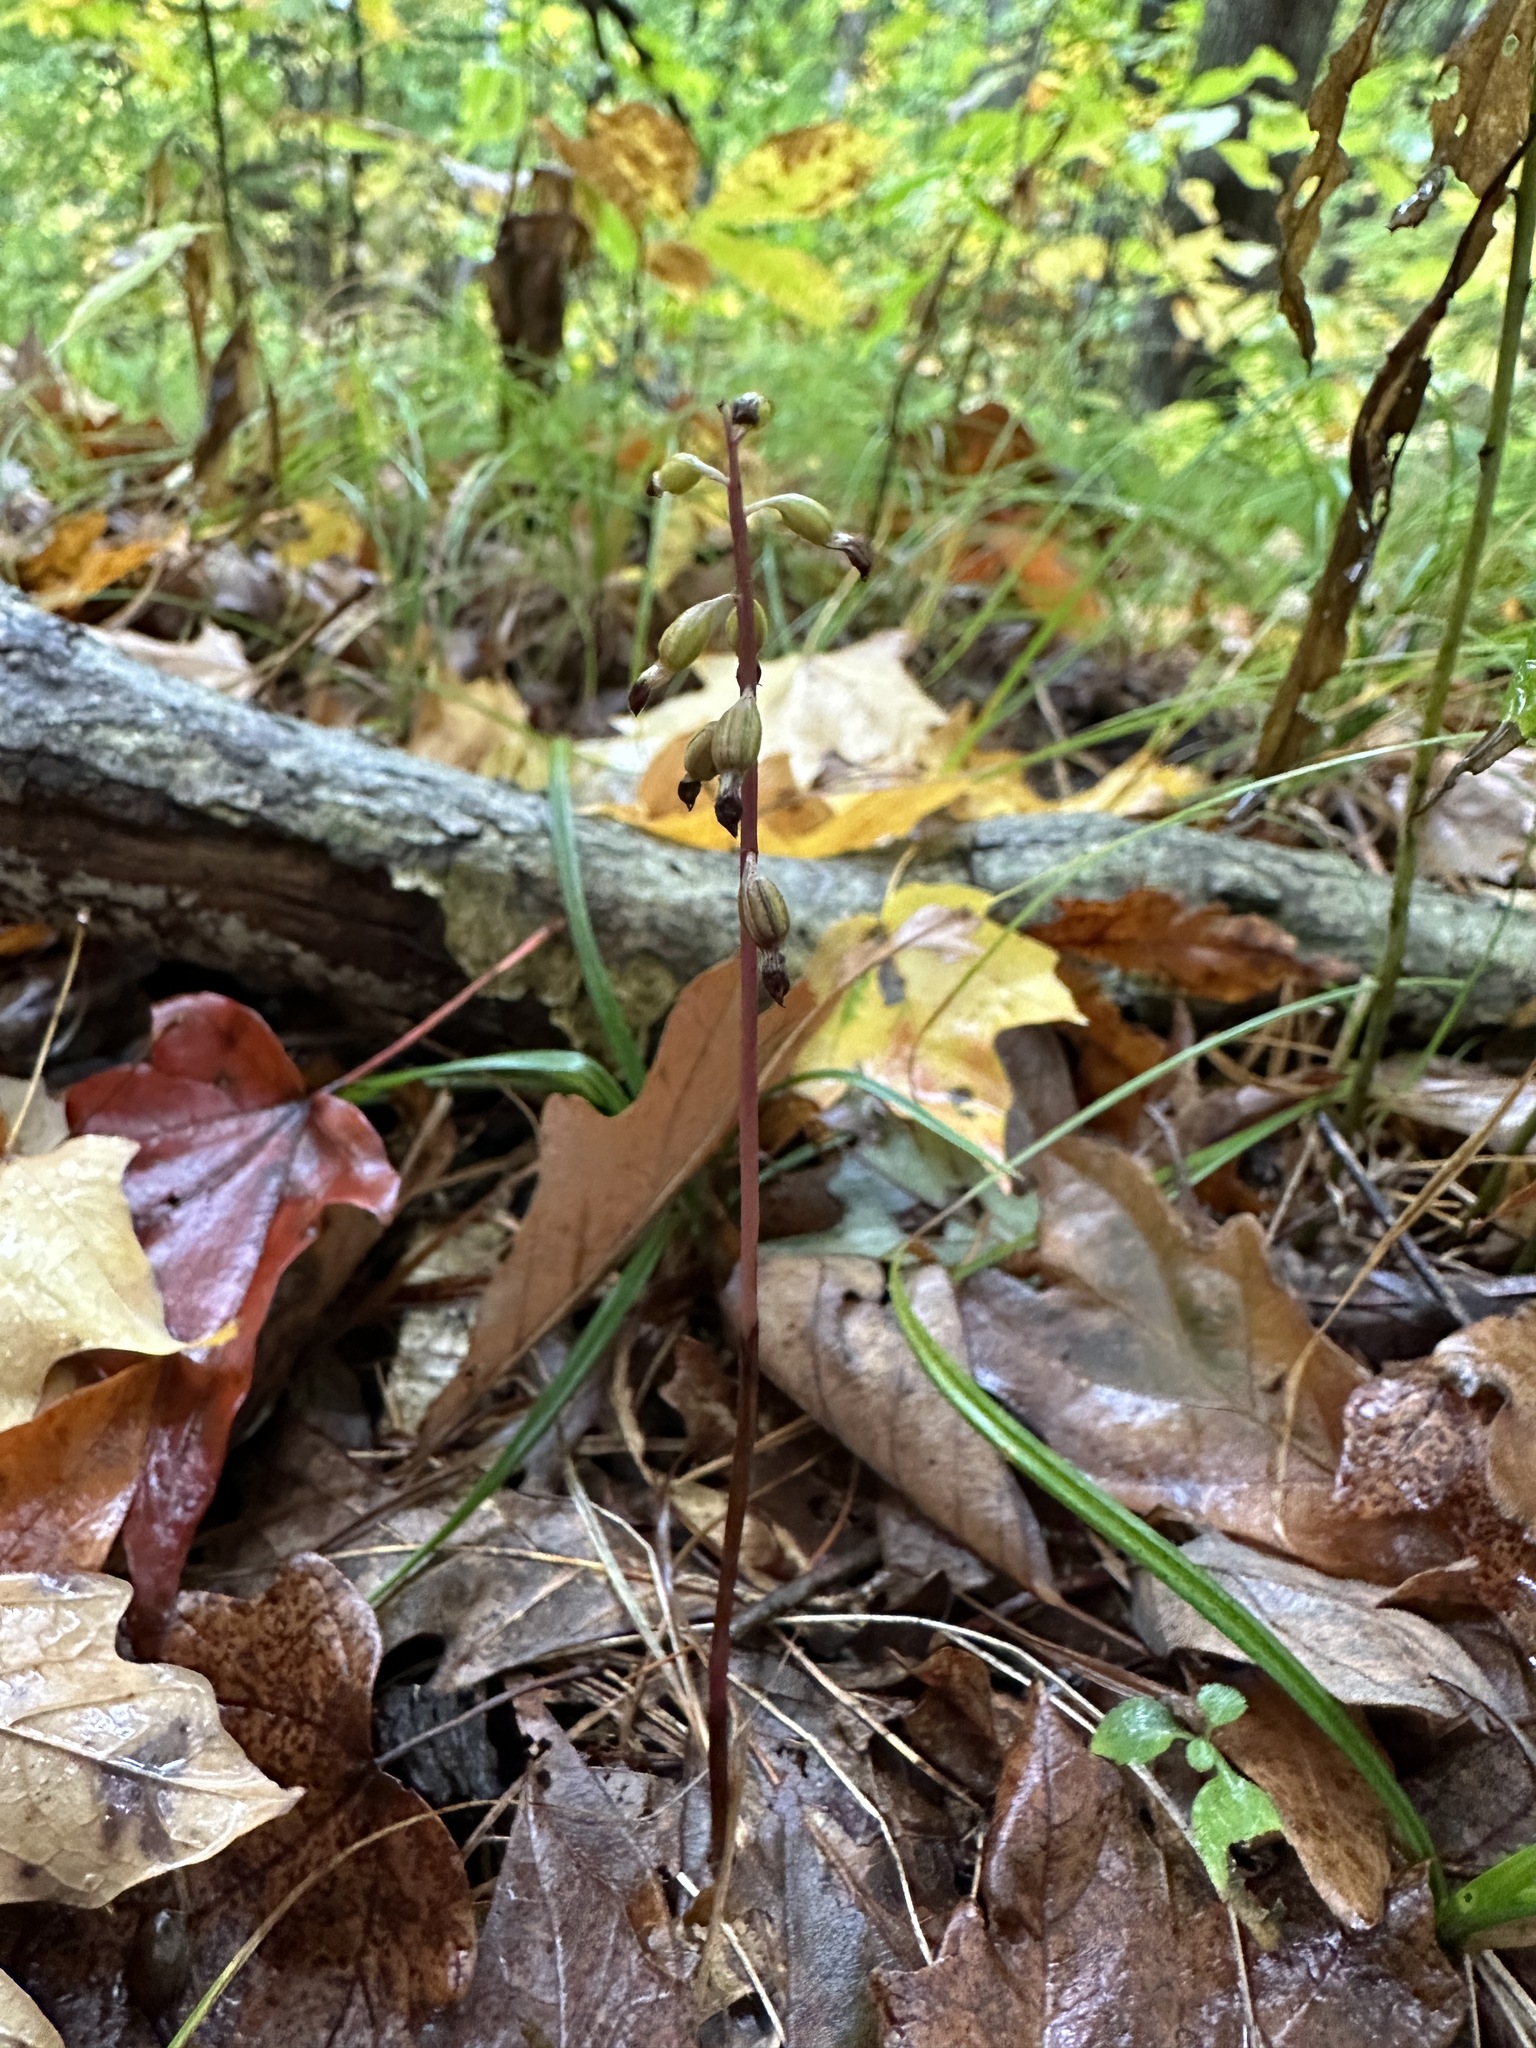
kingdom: Plantae
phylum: Tracheophyta
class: Liliopsida
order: Asparagales
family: Orchidaceae
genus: Corallorhiza
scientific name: Corallorhiza odontorhiza
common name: Autumn coralroot
